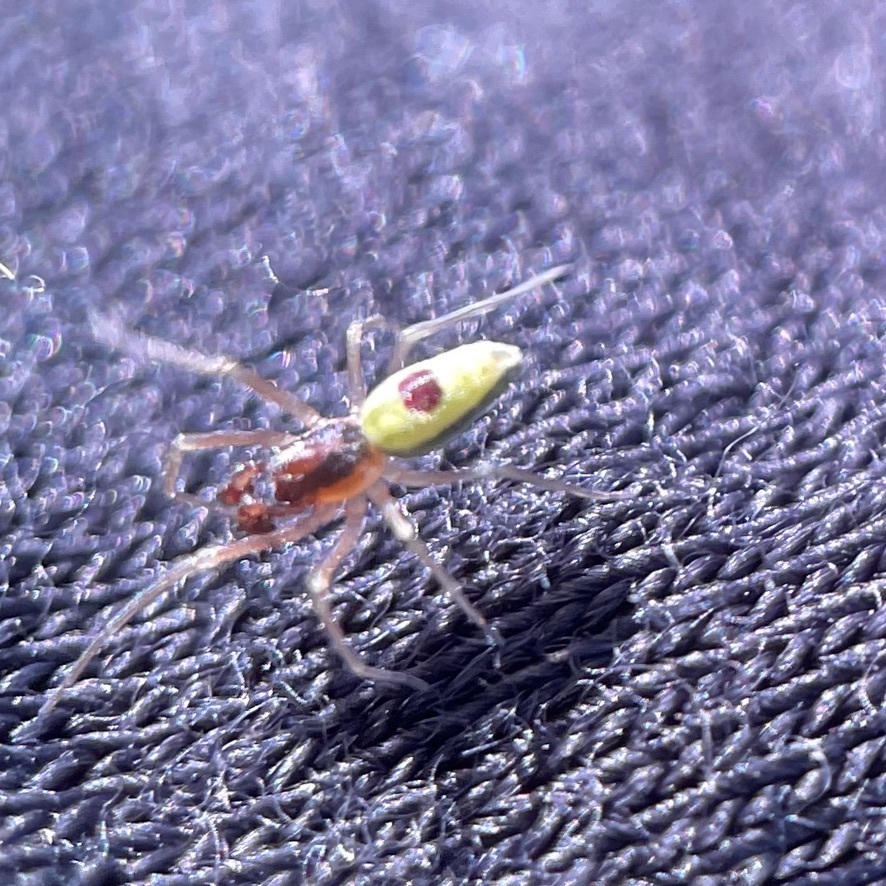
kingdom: Animalia
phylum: Arthropoda
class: Arachnida
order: Araneae
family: Dictynidae
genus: Nigma
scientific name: Nigma linsdalei
